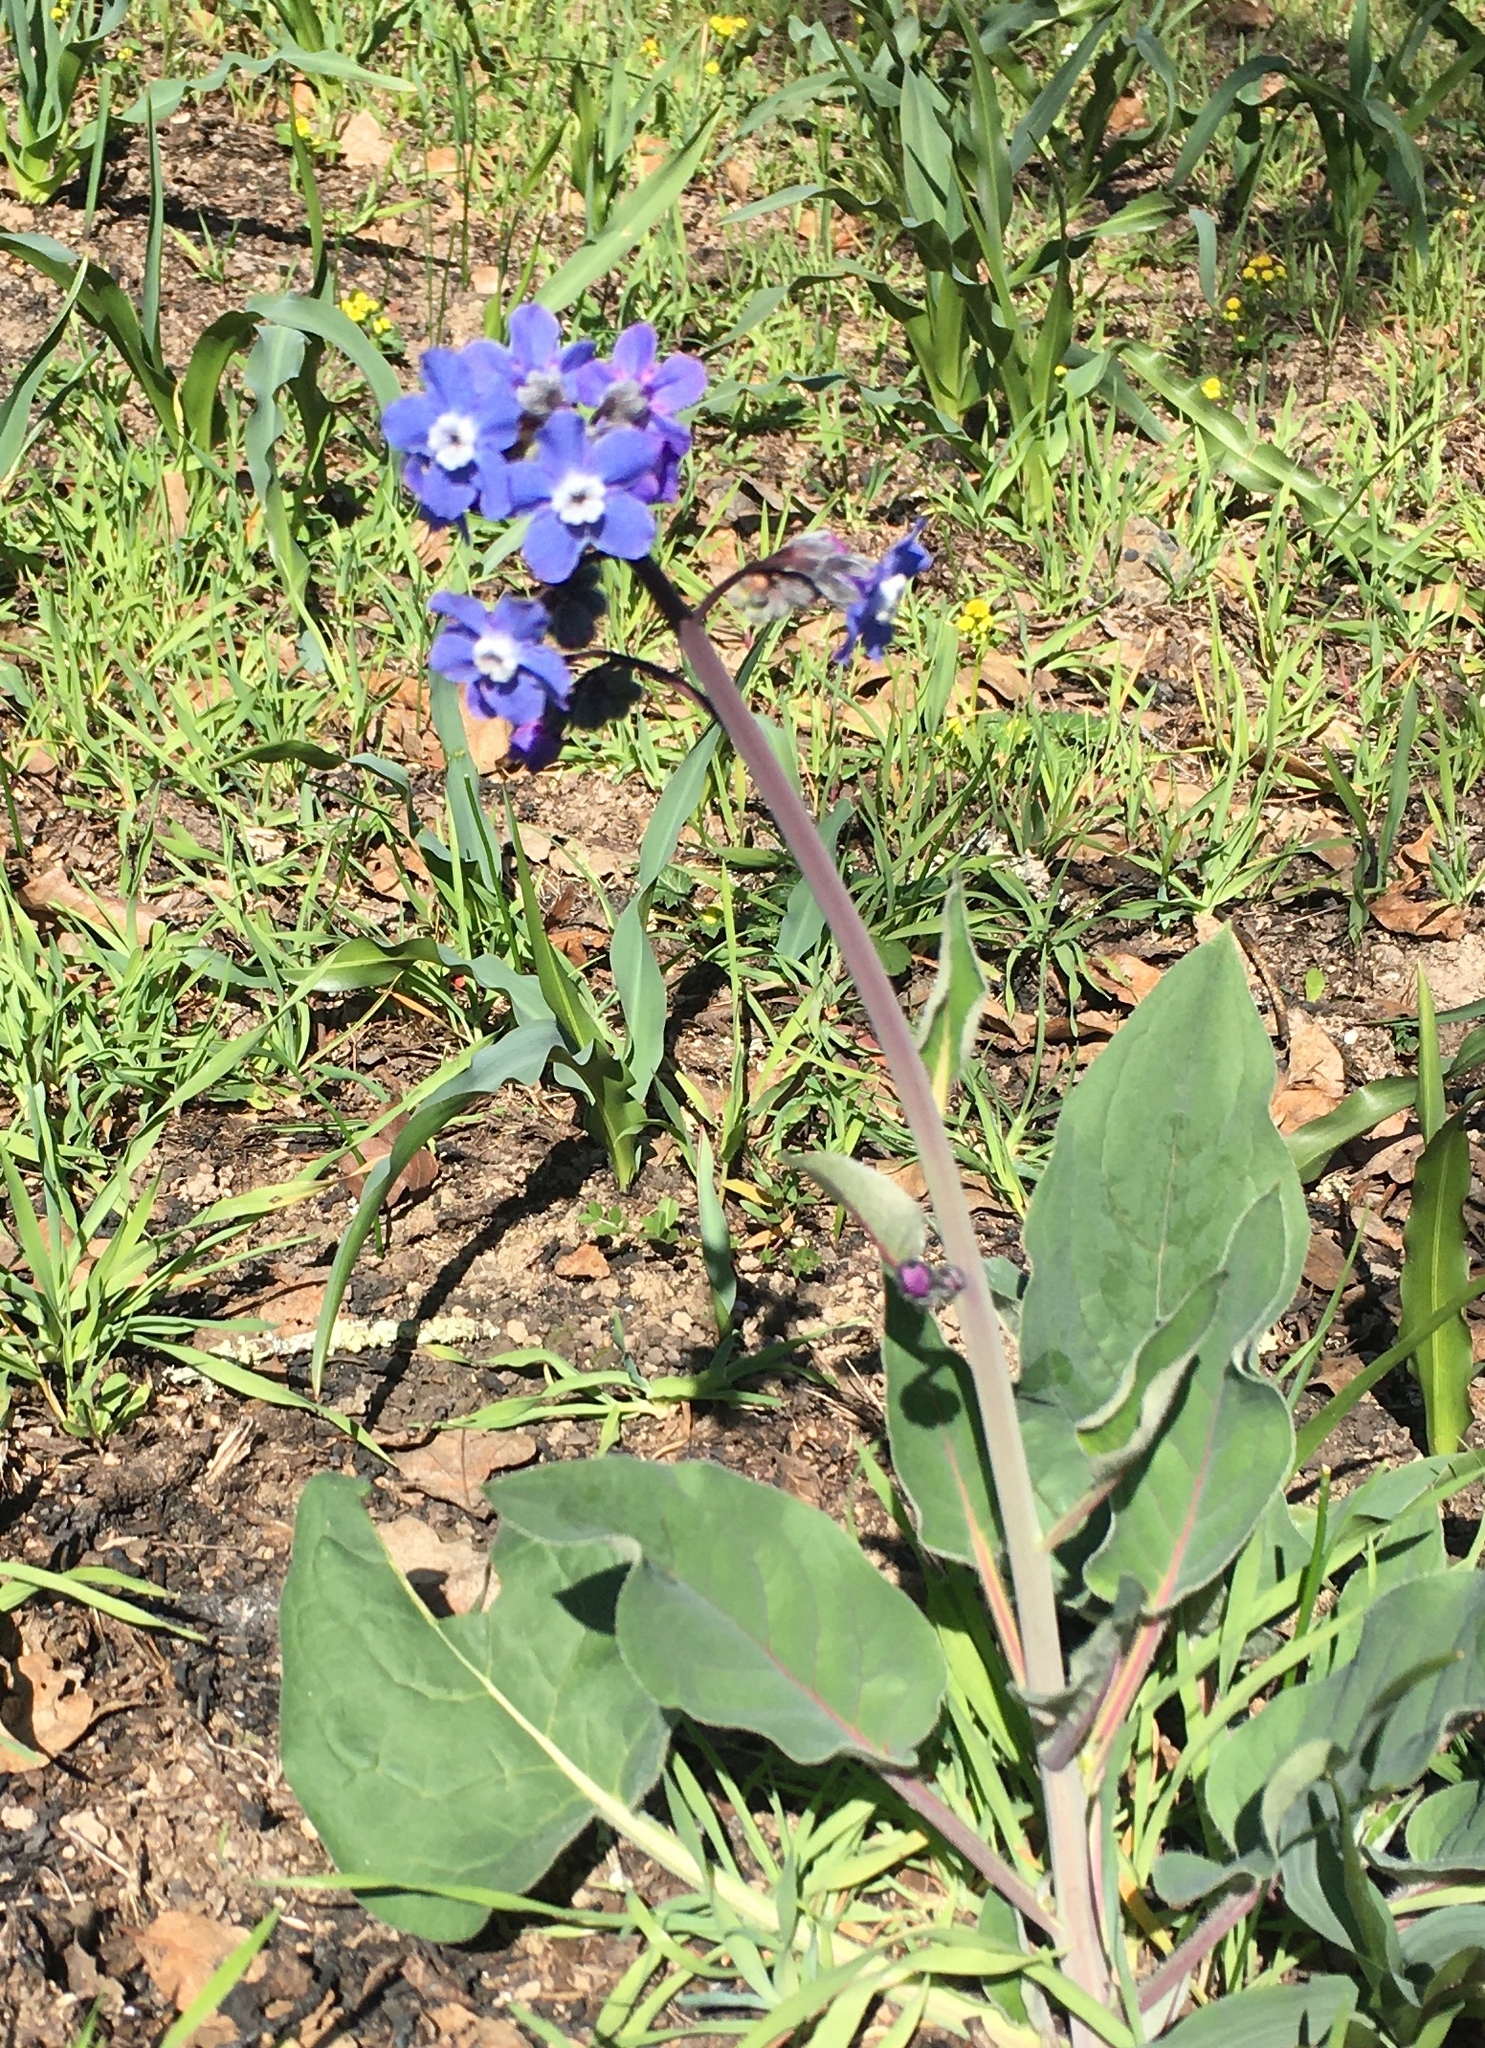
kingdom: Plantae
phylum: Tracheophyta
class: Magnoliopsida
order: Boraginales
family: Boraginaceae
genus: Adelinia
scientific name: Adelinia grande
